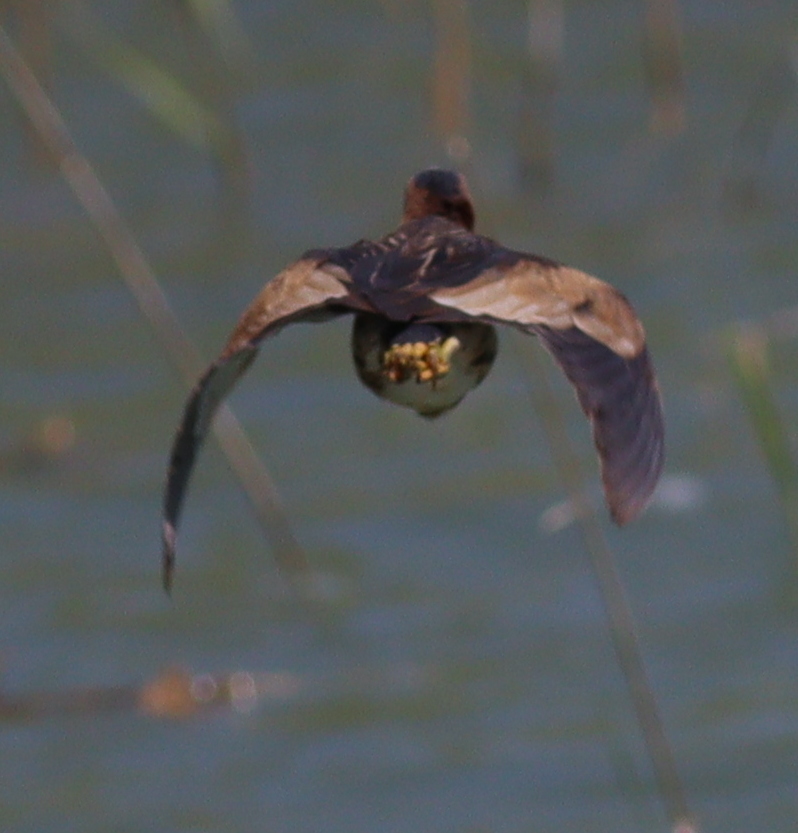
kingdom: Animalia
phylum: Chordata
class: Aves
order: Pelecaniformes
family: Ardeidae
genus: Ixobrychus
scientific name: Ixobrychus minutus
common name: Little bittern
